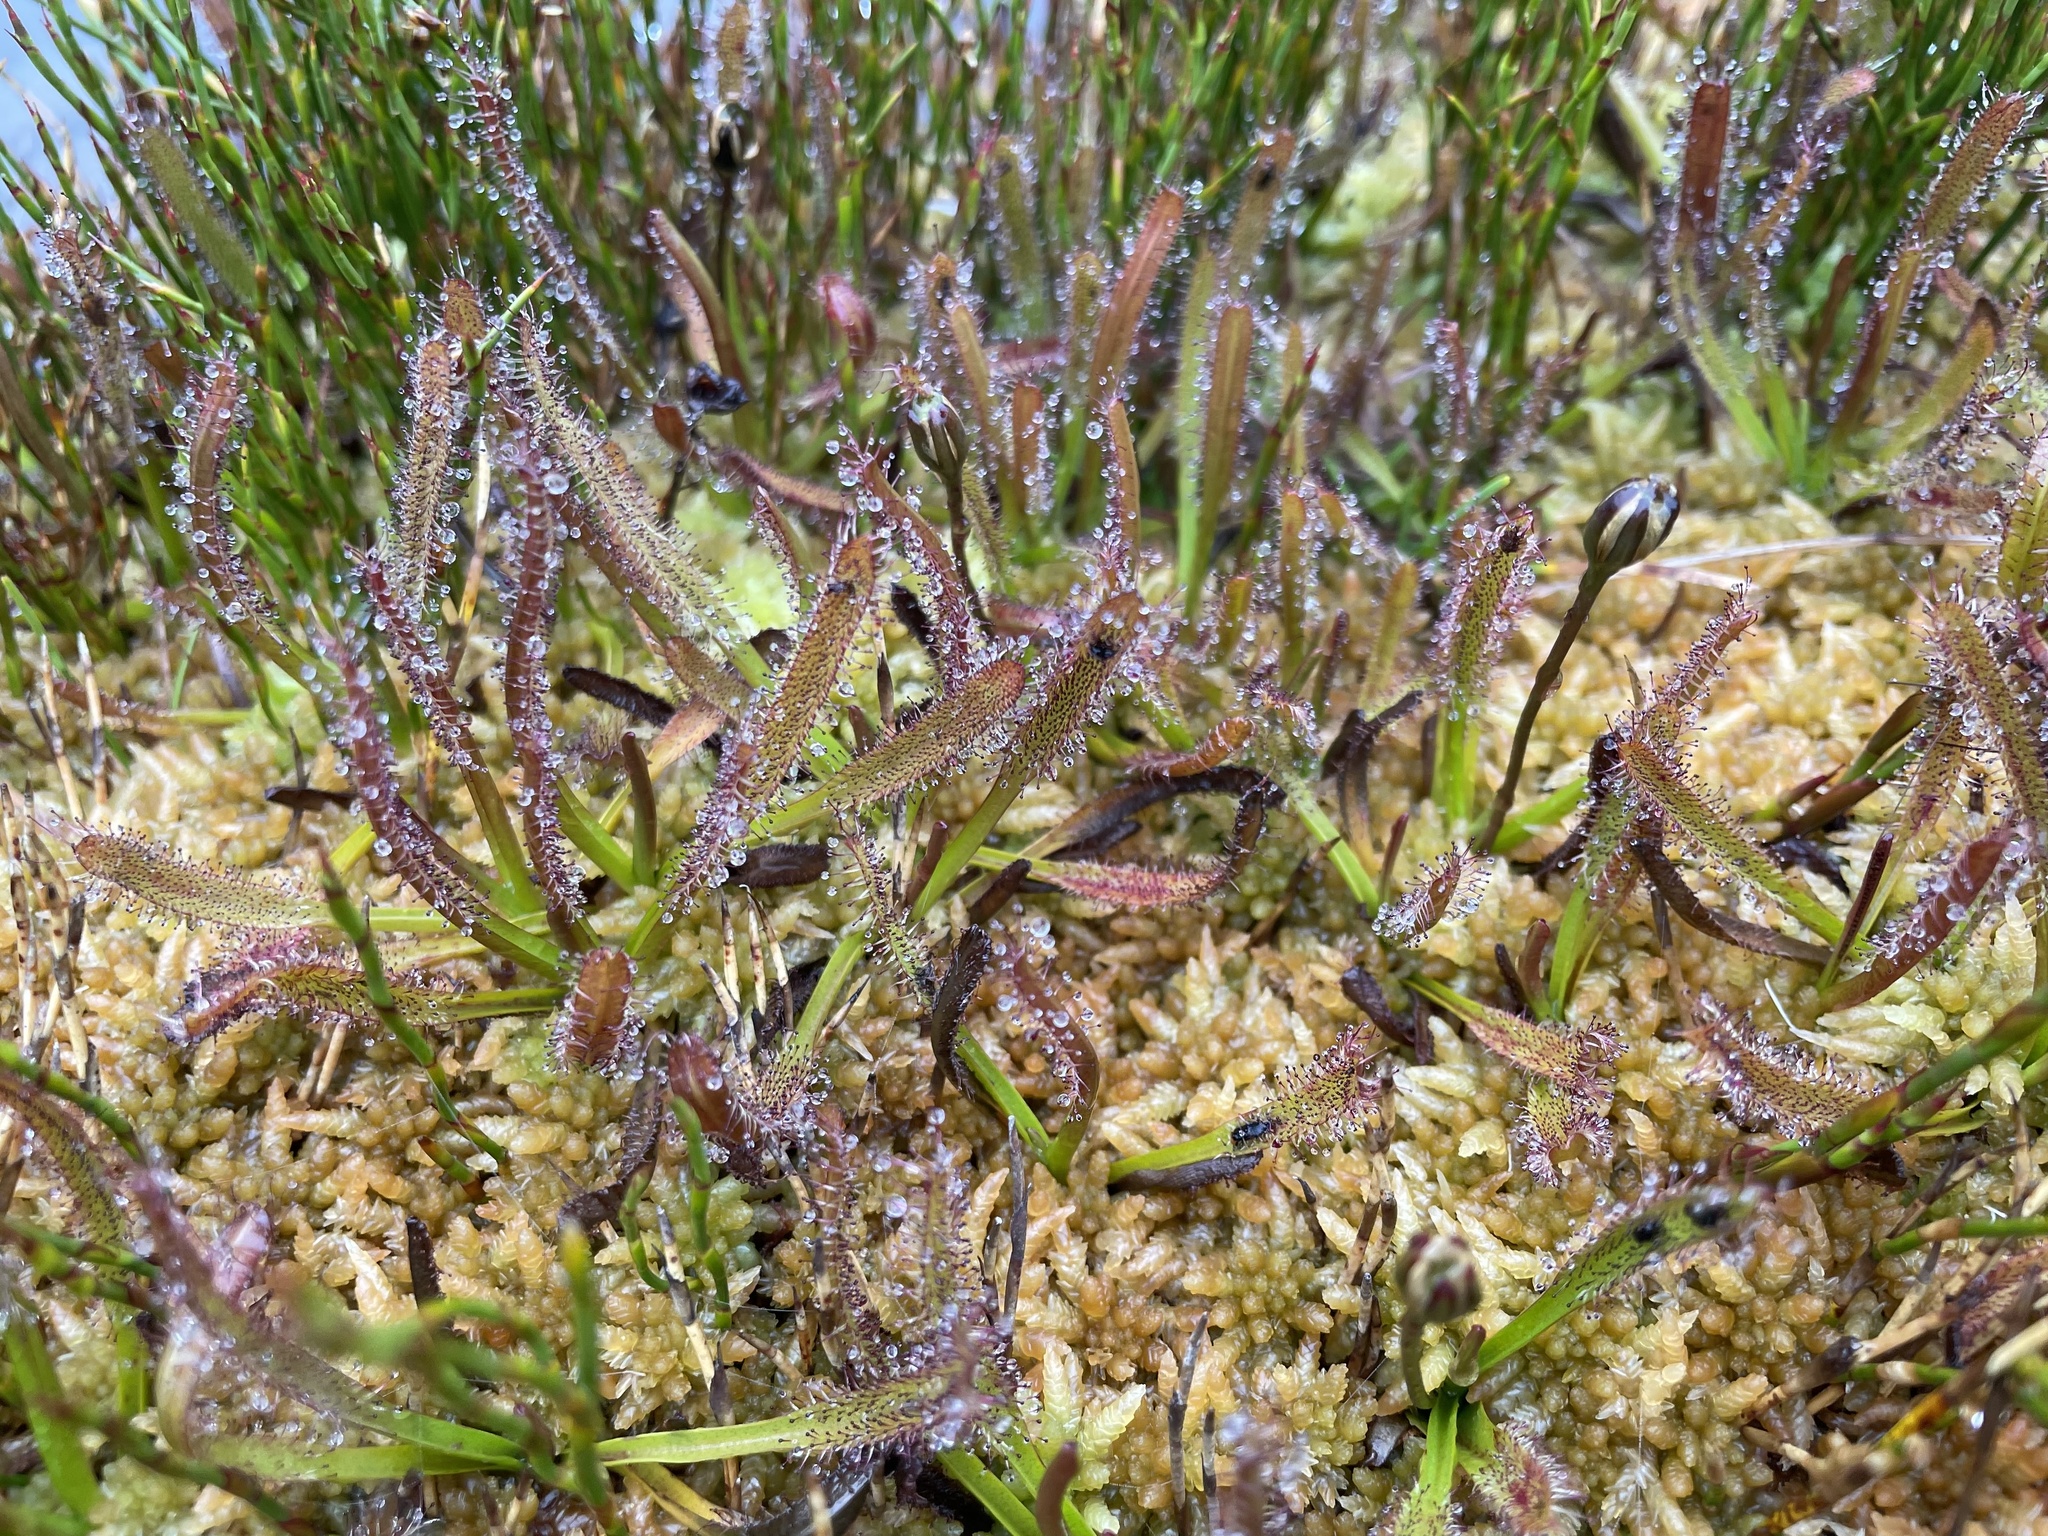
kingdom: Plantae
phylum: Tracheophyta
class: Magnoliopsida
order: Caryophyllales
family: Droseraceae
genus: Drosera
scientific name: Drosera arcturi
